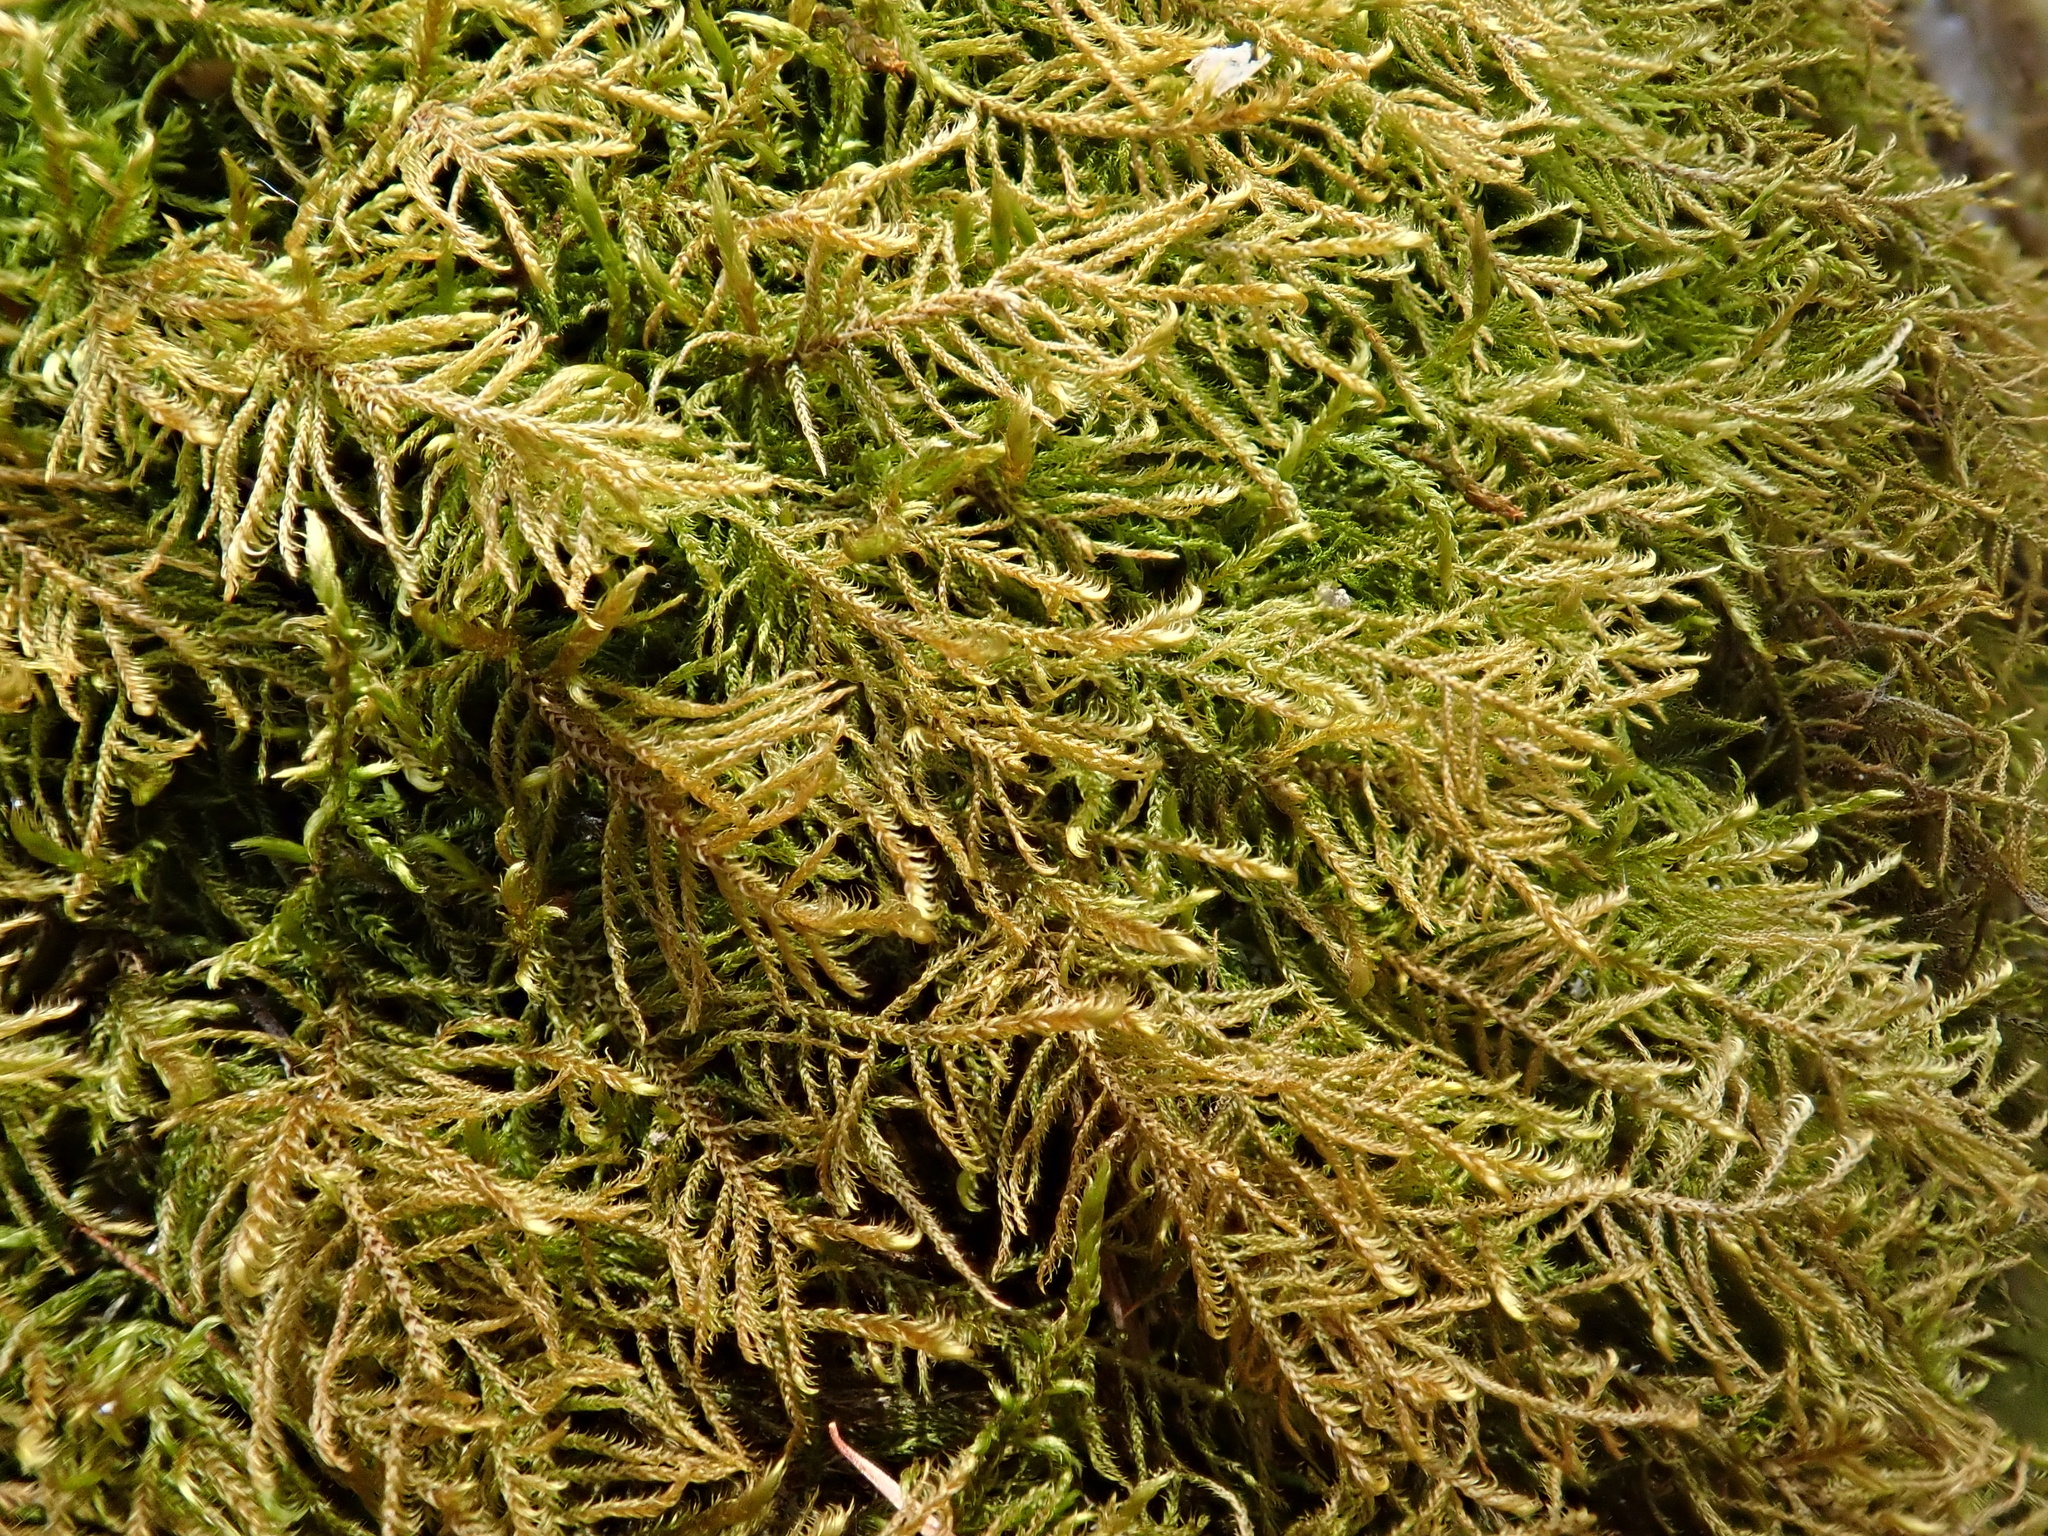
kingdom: Plantae
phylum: Bryophyta
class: Bryopsida
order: Hypnales
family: Amblystegiaceae
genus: Cratoneuron
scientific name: Cratoneuron filicinum
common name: Fern-leaved hook moss
